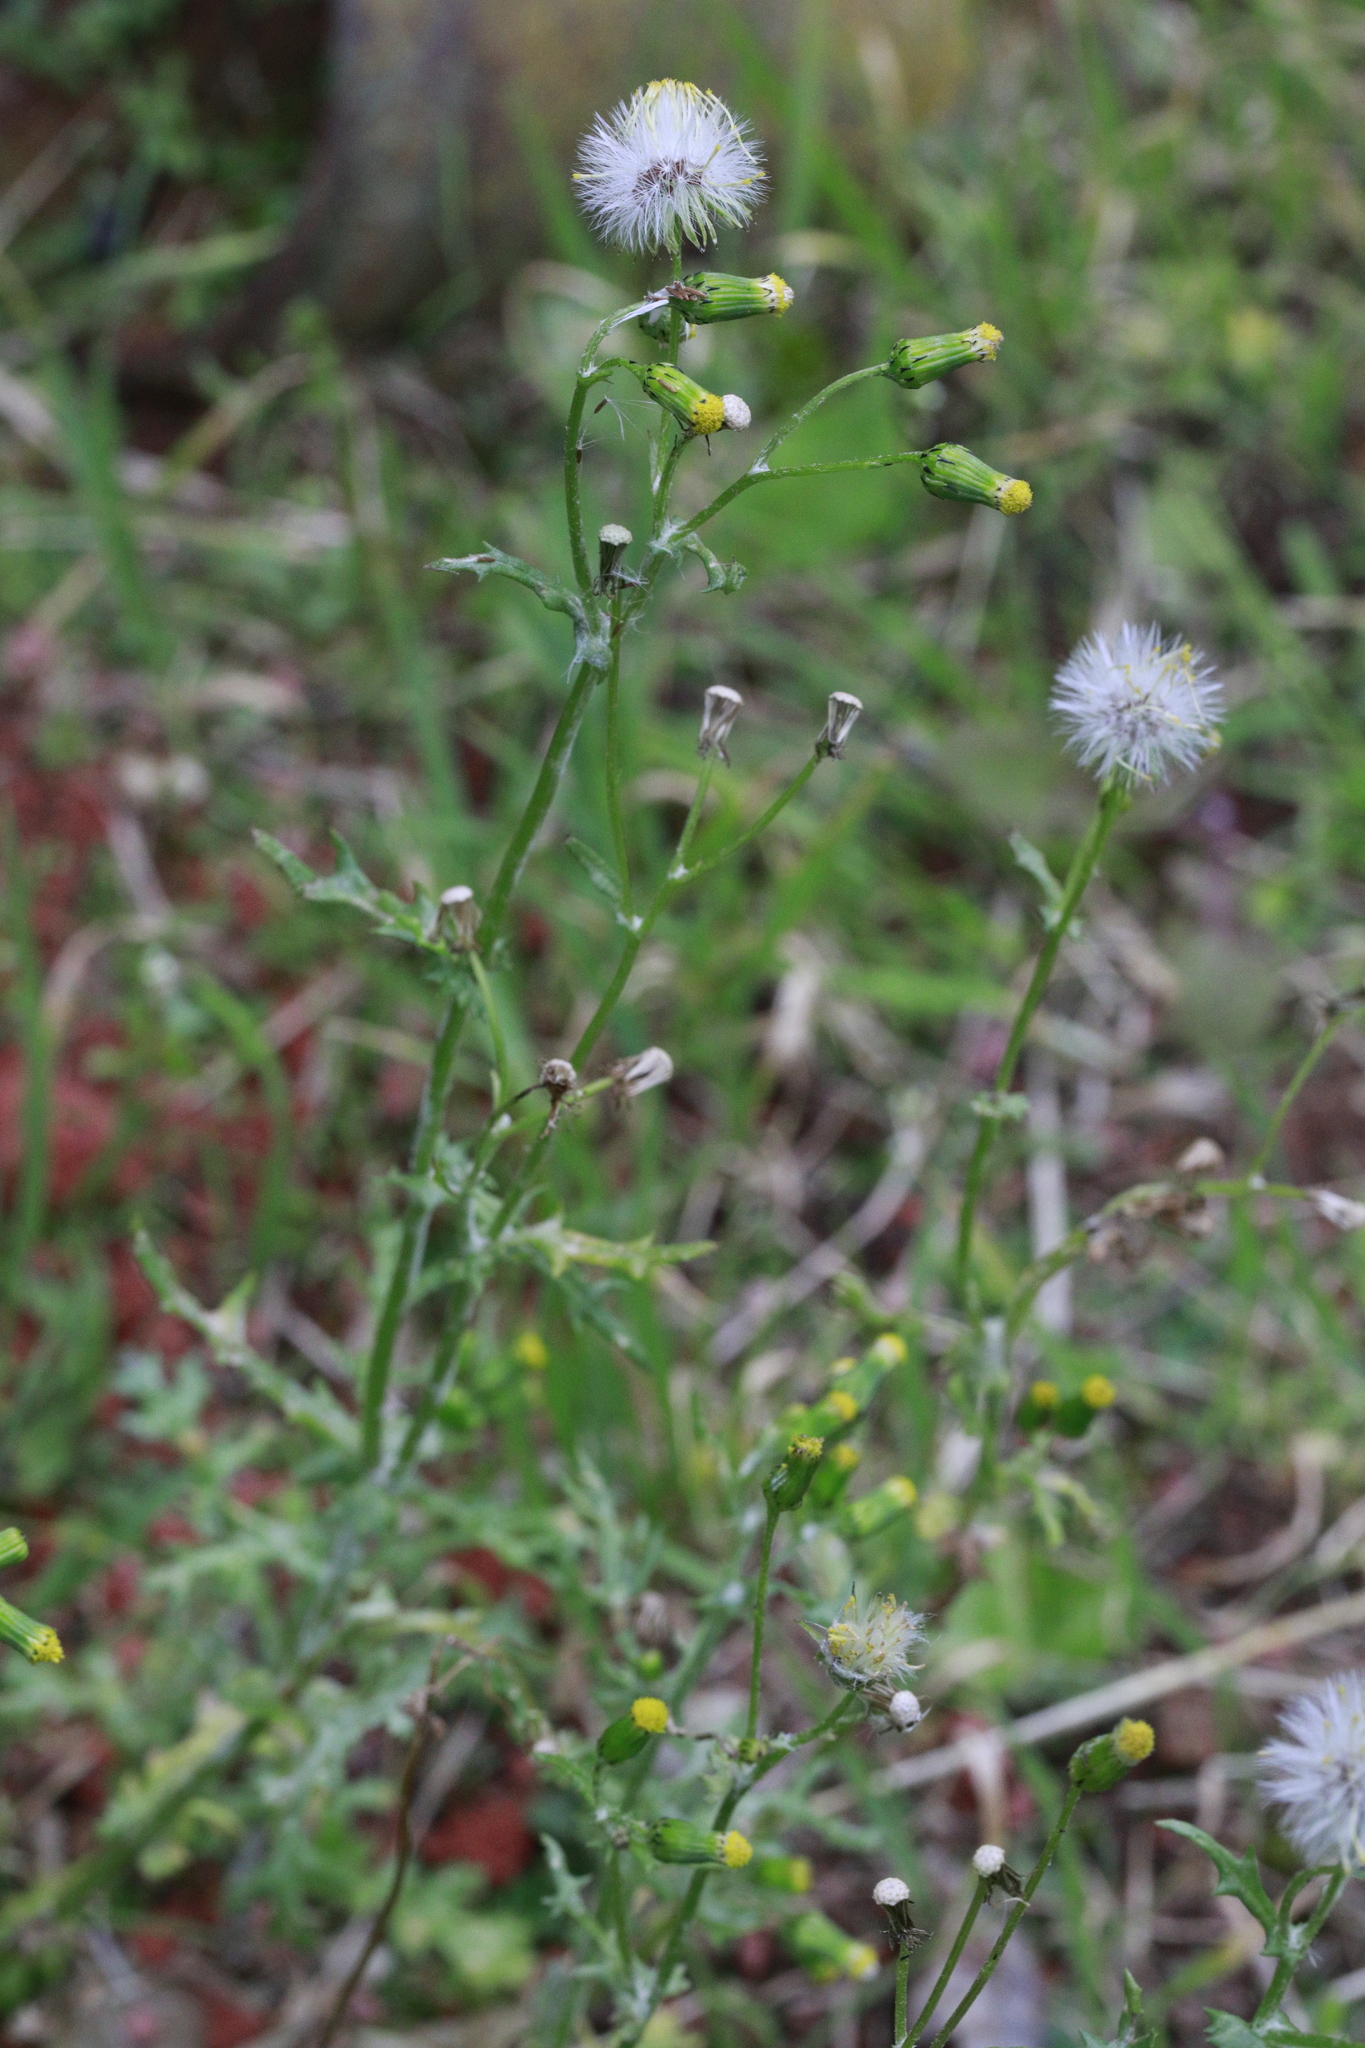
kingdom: Plantae
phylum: Tracheophyta
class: Magnoliopsida
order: Asterales
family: Asteraceae
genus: Senecio
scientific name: Senecio vulgaris
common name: Old-man-in-the-spring
